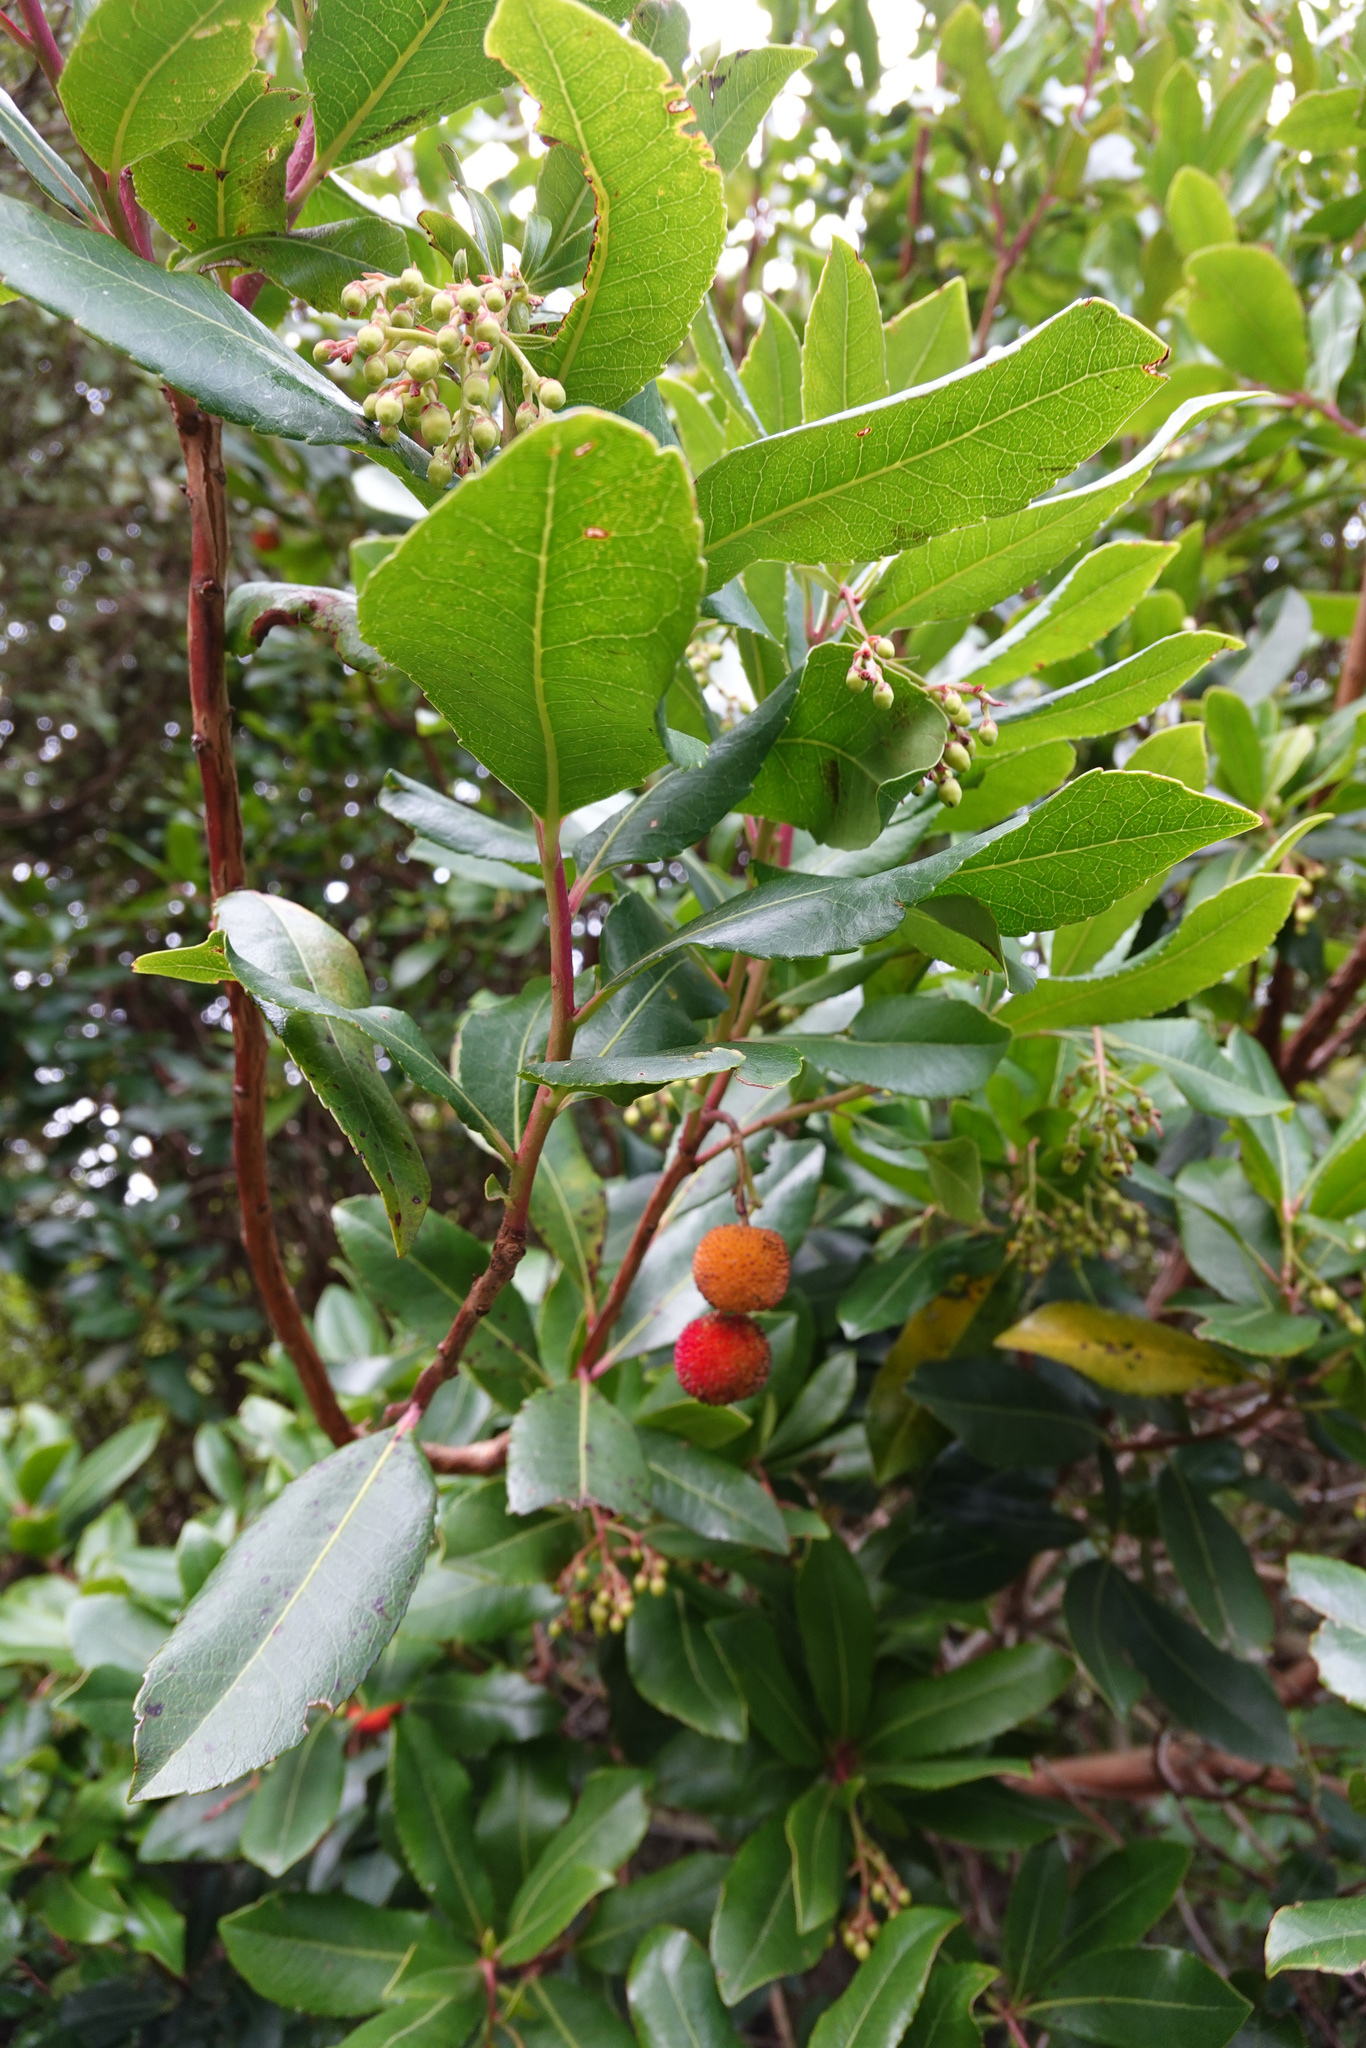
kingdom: Plantae
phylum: Tracheophyta
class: Magnoliopsida
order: Ericales
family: Ericaceae
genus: Arbutus
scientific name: Arbutus unedo
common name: Strawberry-tree
